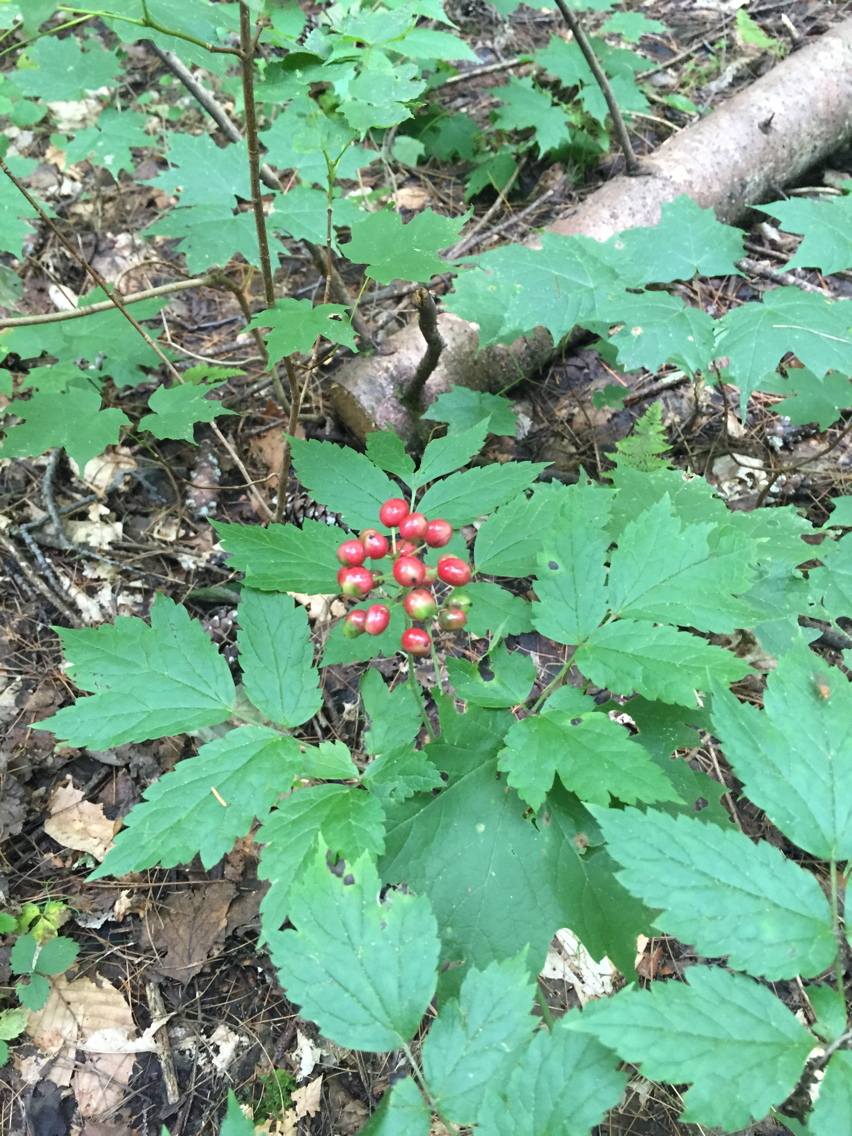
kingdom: Plantae
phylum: Tracheophyta
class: Magnoliopsida
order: Ranunculales
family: Ranunculaceae
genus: Actaea
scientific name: Actaea rubra
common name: Red baneberry
